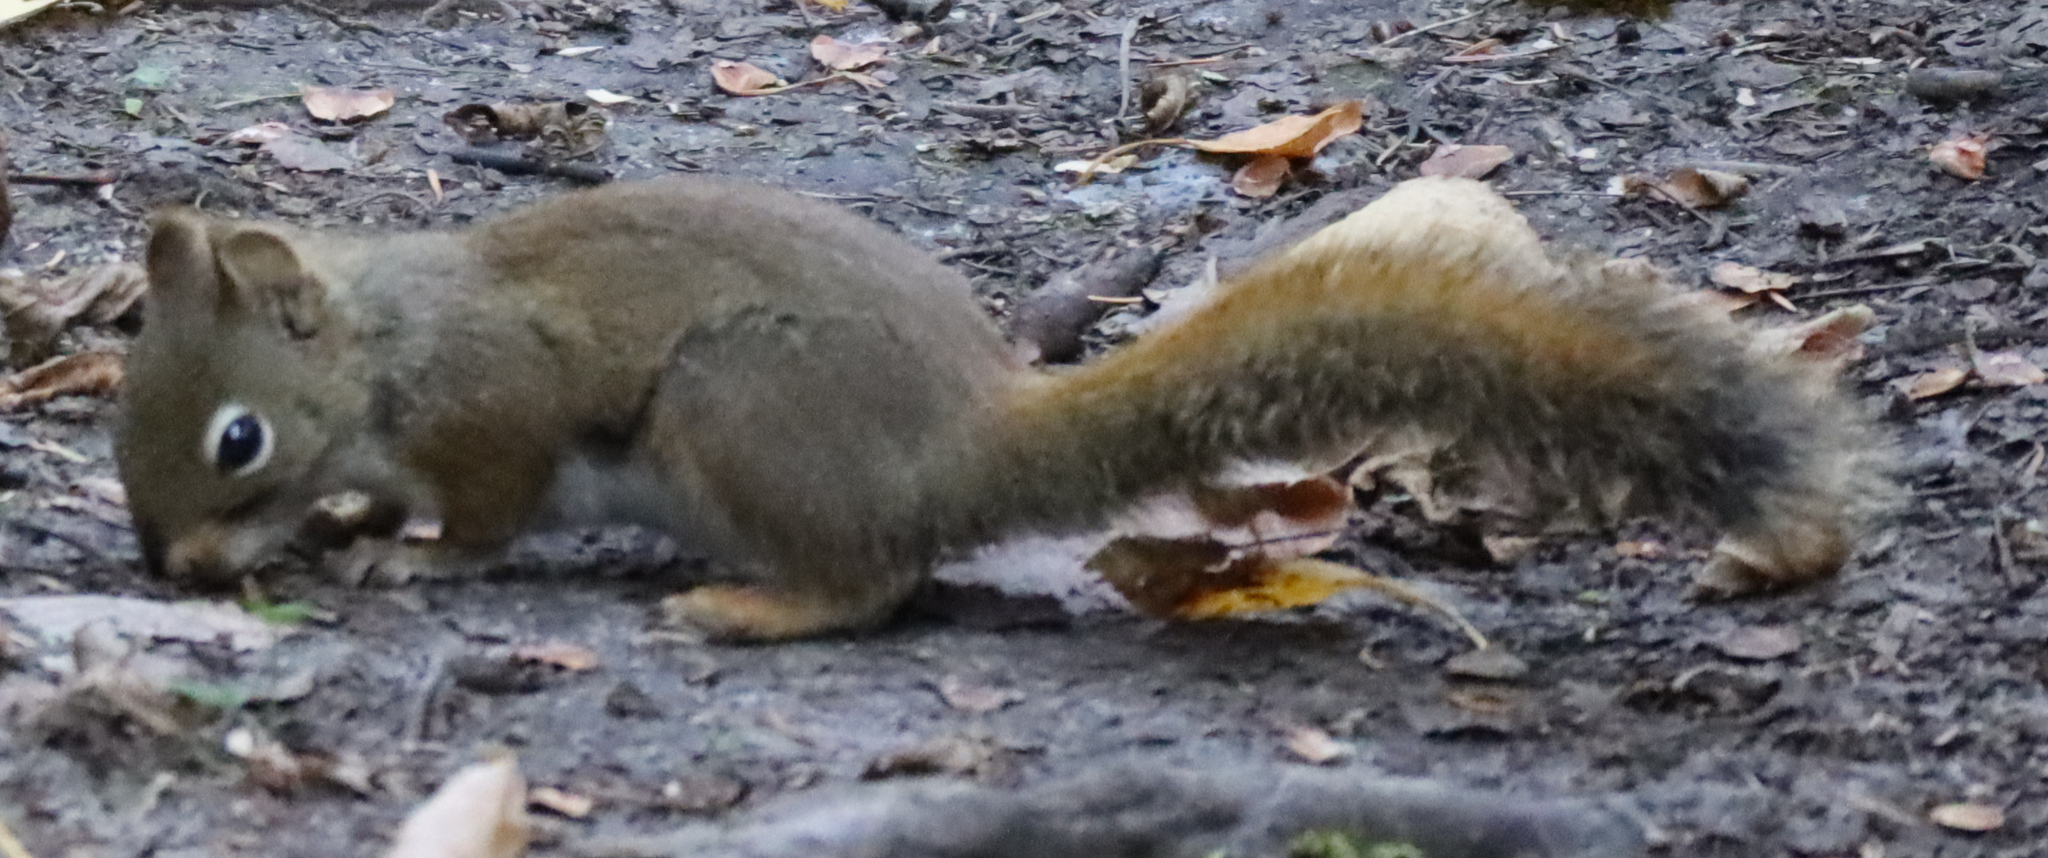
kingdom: Animalia
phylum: Chordata
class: Mammalia
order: Rodentia
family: Sciuridae
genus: Tamiasciurus
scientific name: Tamiasciurus hudsonicus
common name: Red squirrel
